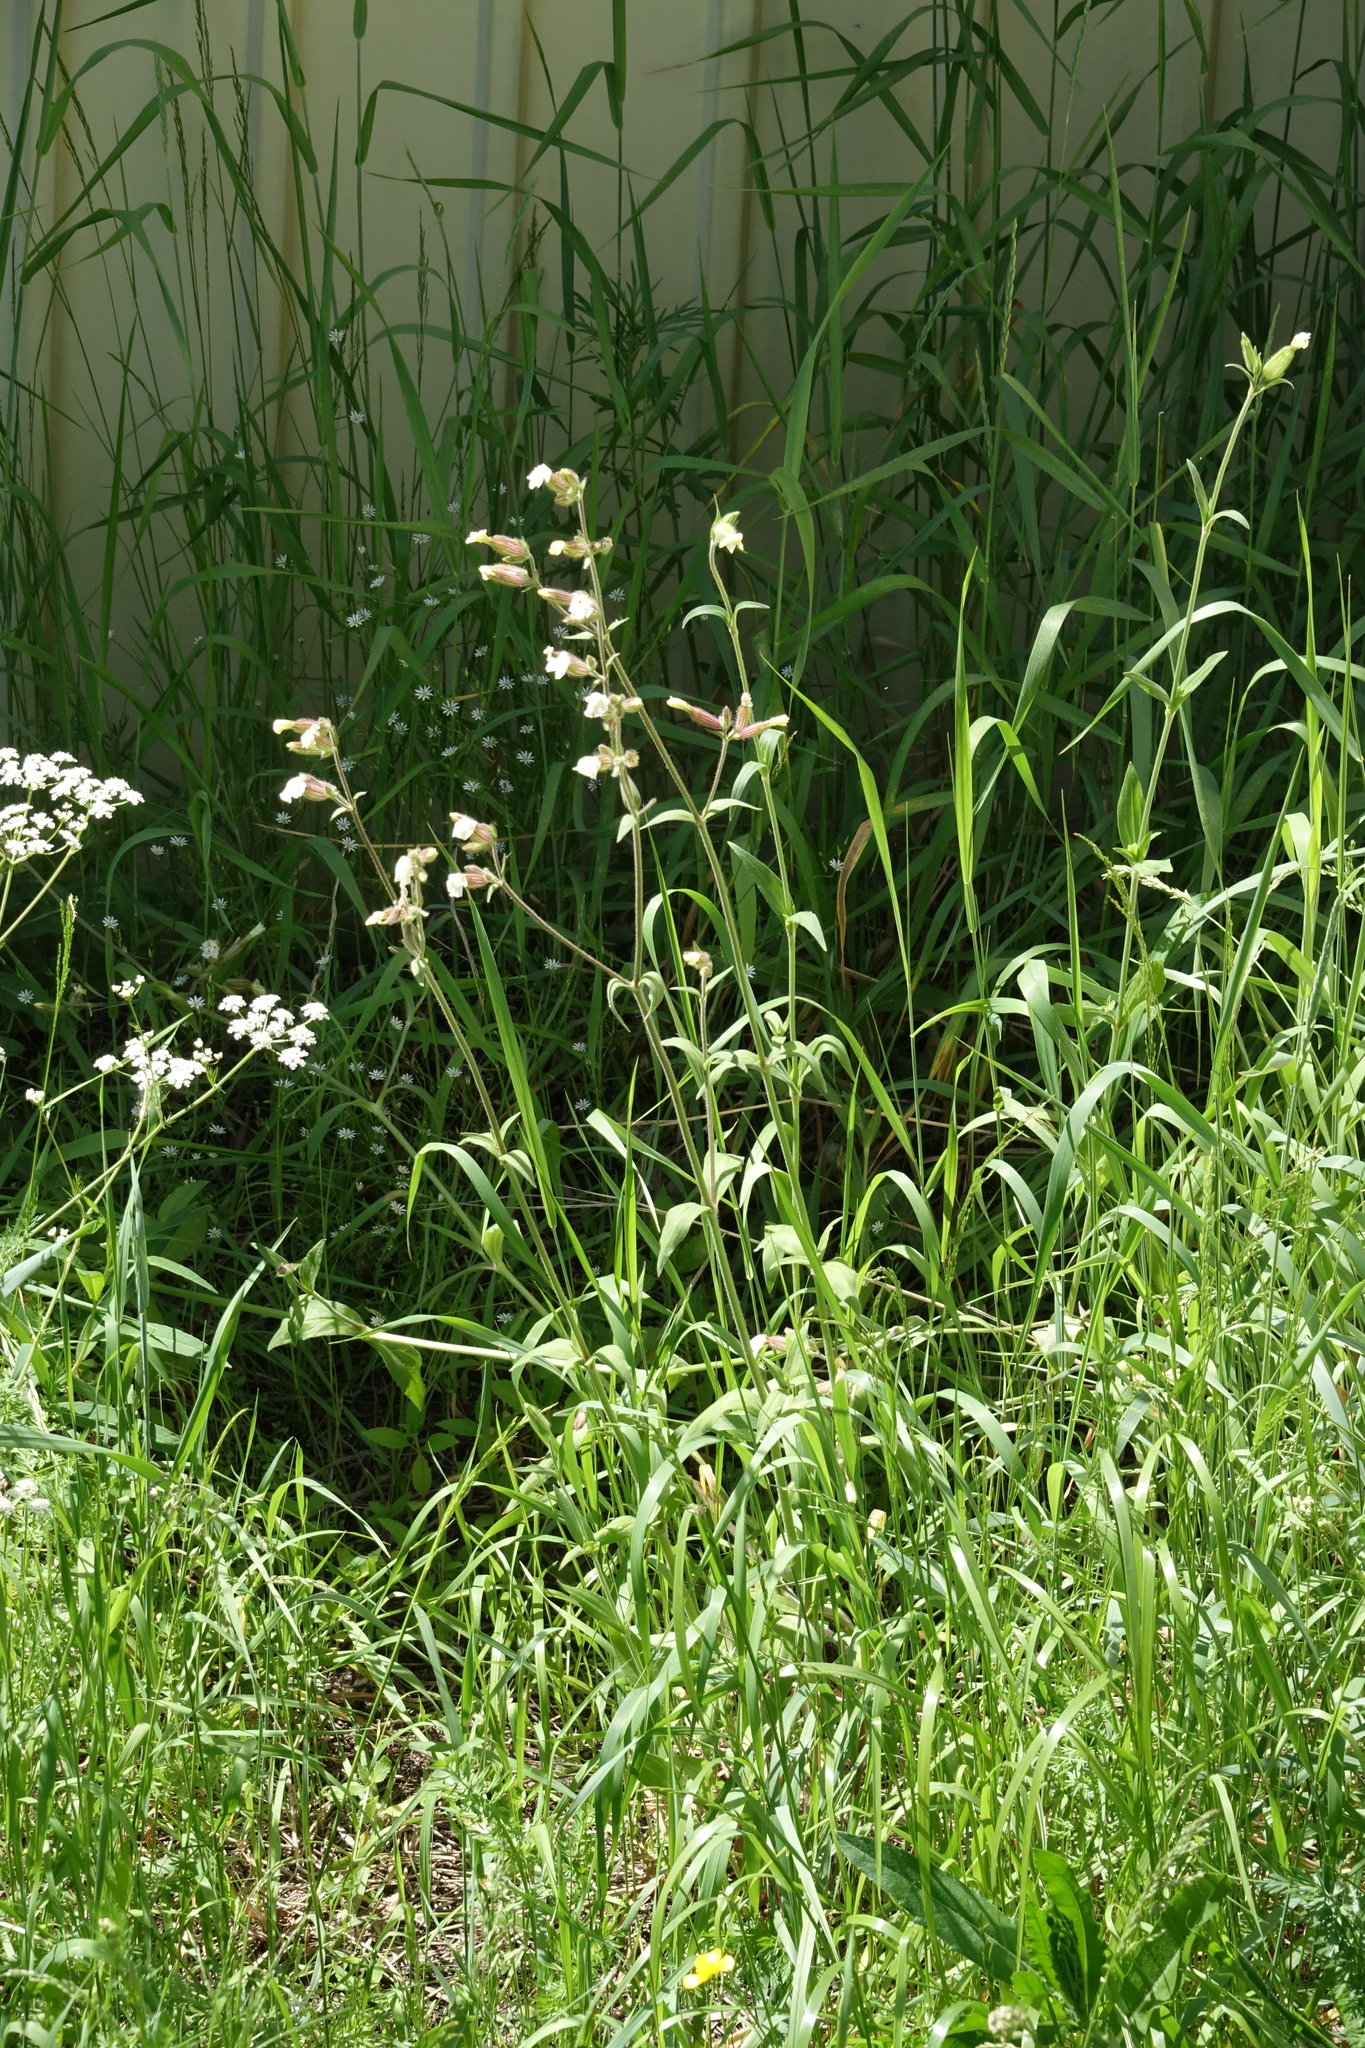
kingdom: Plantae
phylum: Tracheophyta
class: Magnoliopsida
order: Caryophyllales
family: Caryophyllaceae
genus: Silene
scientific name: Silene latifolia
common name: White campion
